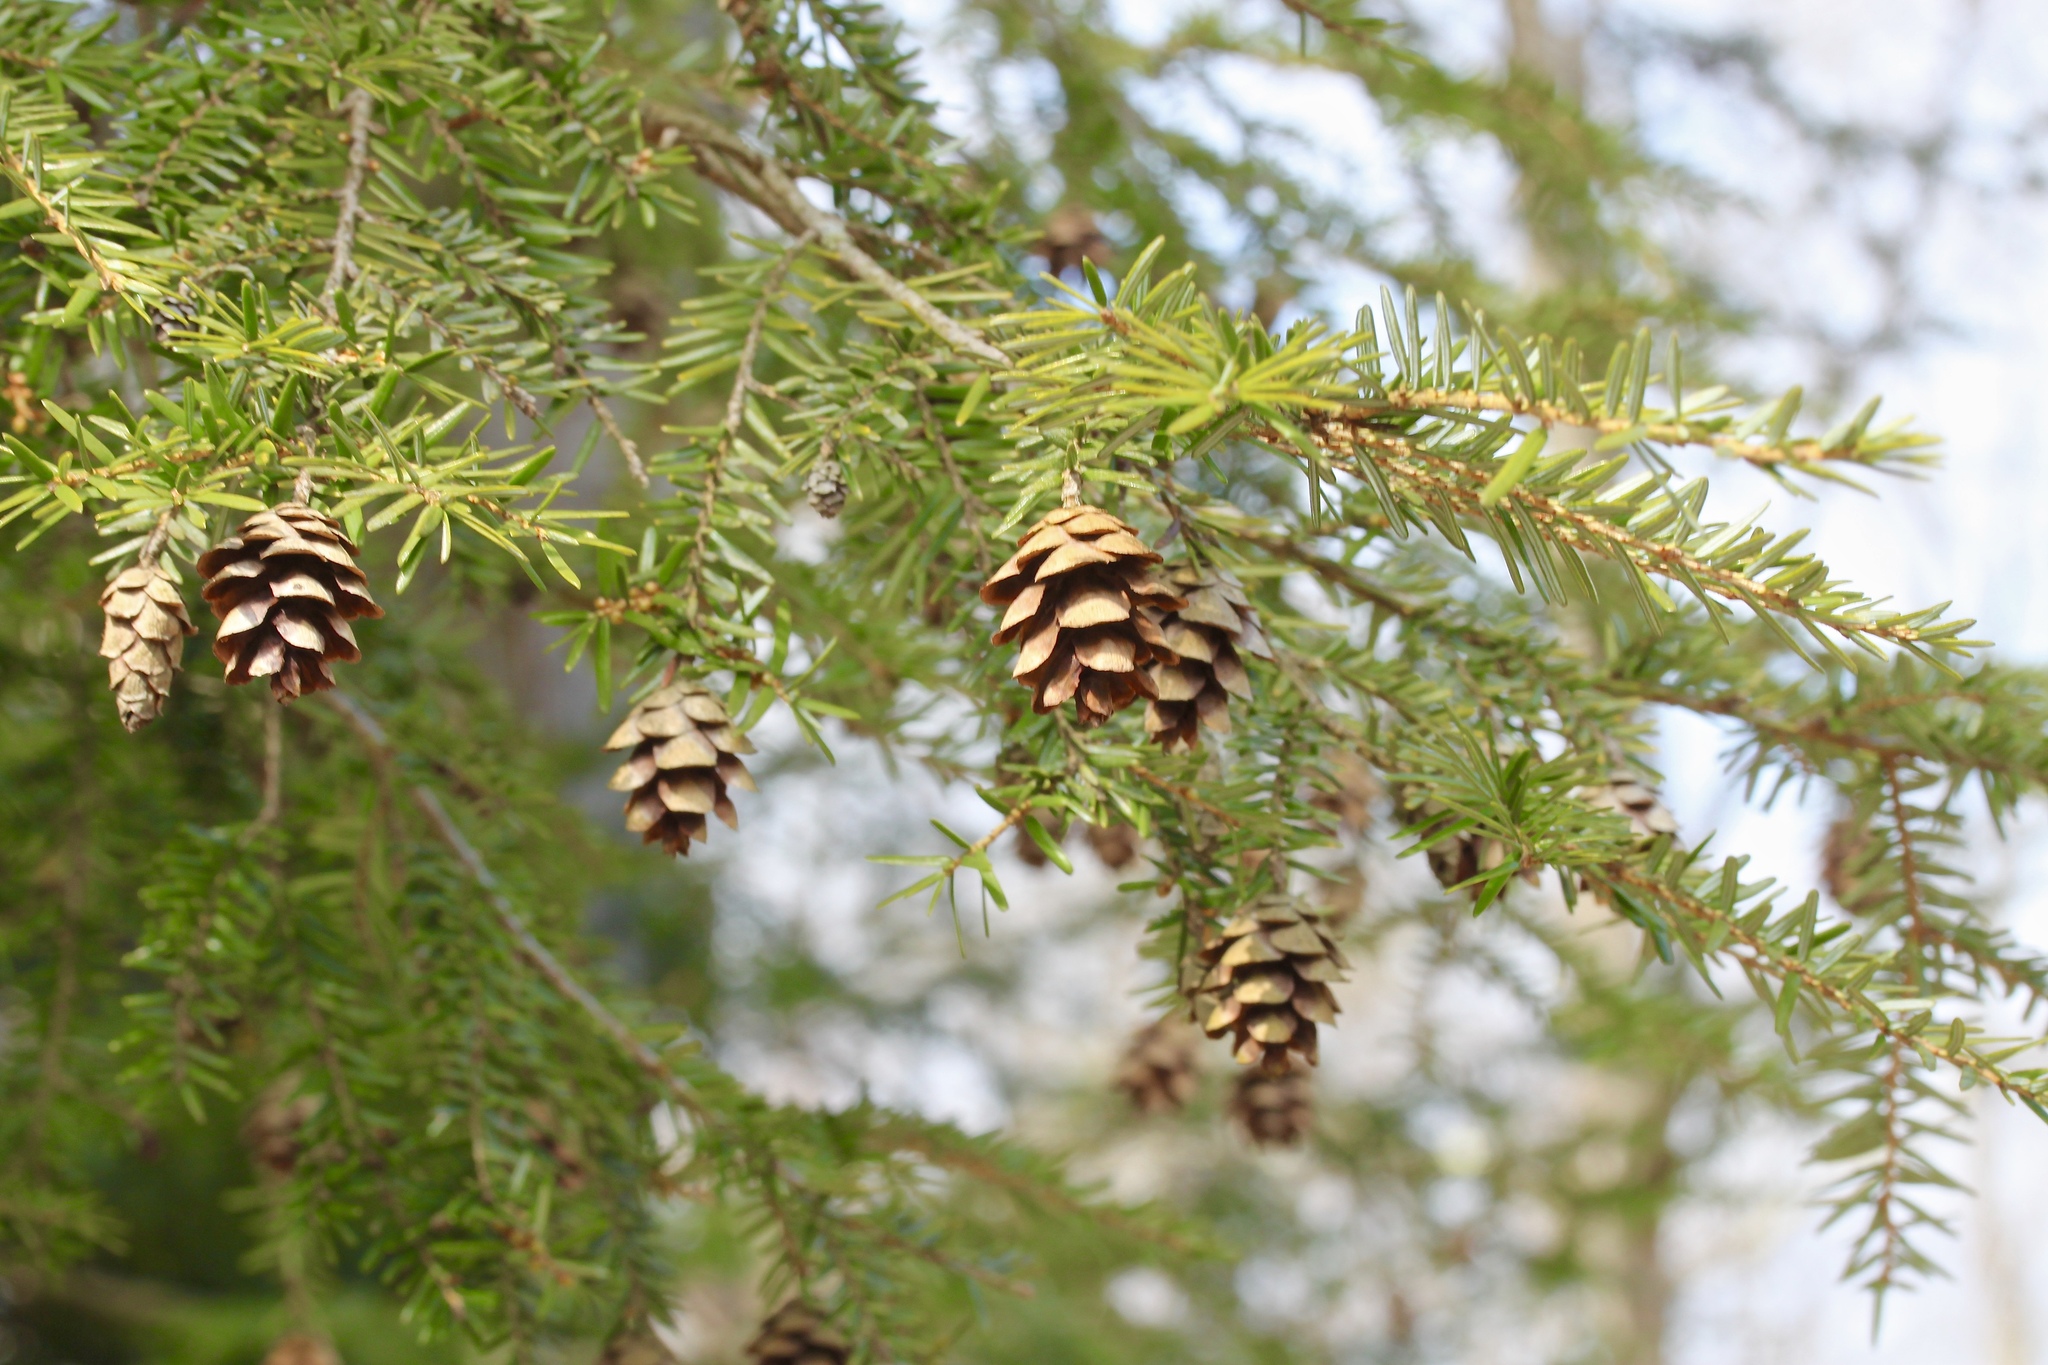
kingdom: Plantae
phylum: Tracheophyta
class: Pinopsida
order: Pinales
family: Pinaceae
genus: Tsuga
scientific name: Tsuga canadensis
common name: Eastern hemlock
